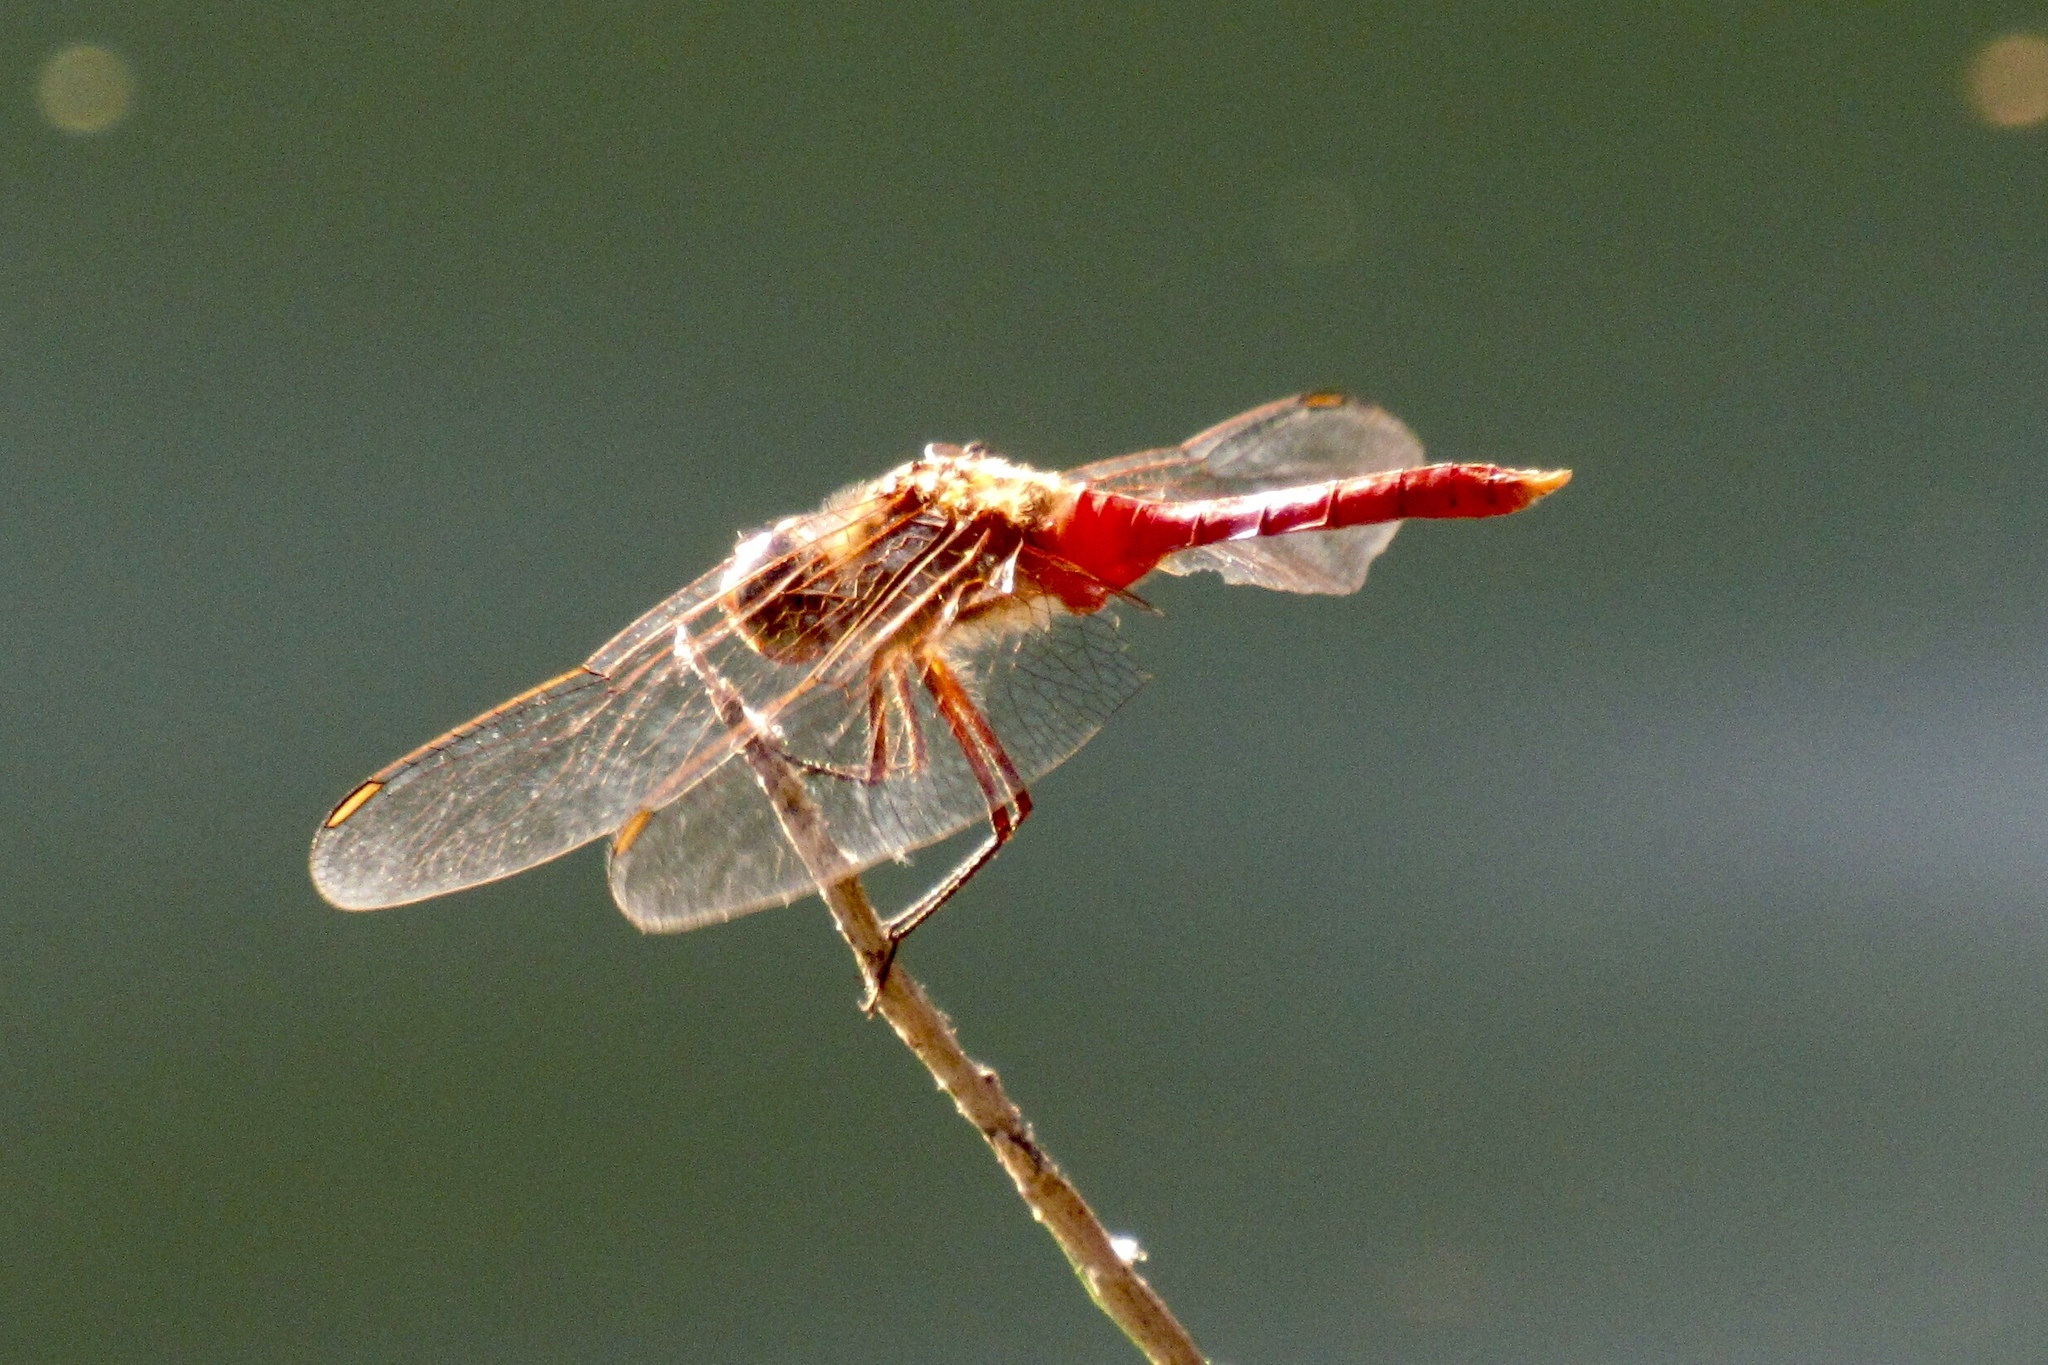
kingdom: Animalia
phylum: Arthropoda
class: Insecta
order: Odonata
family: Libellulidae
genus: Brachymesia
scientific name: Brachymesia furcata
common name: Red-taled pennant
